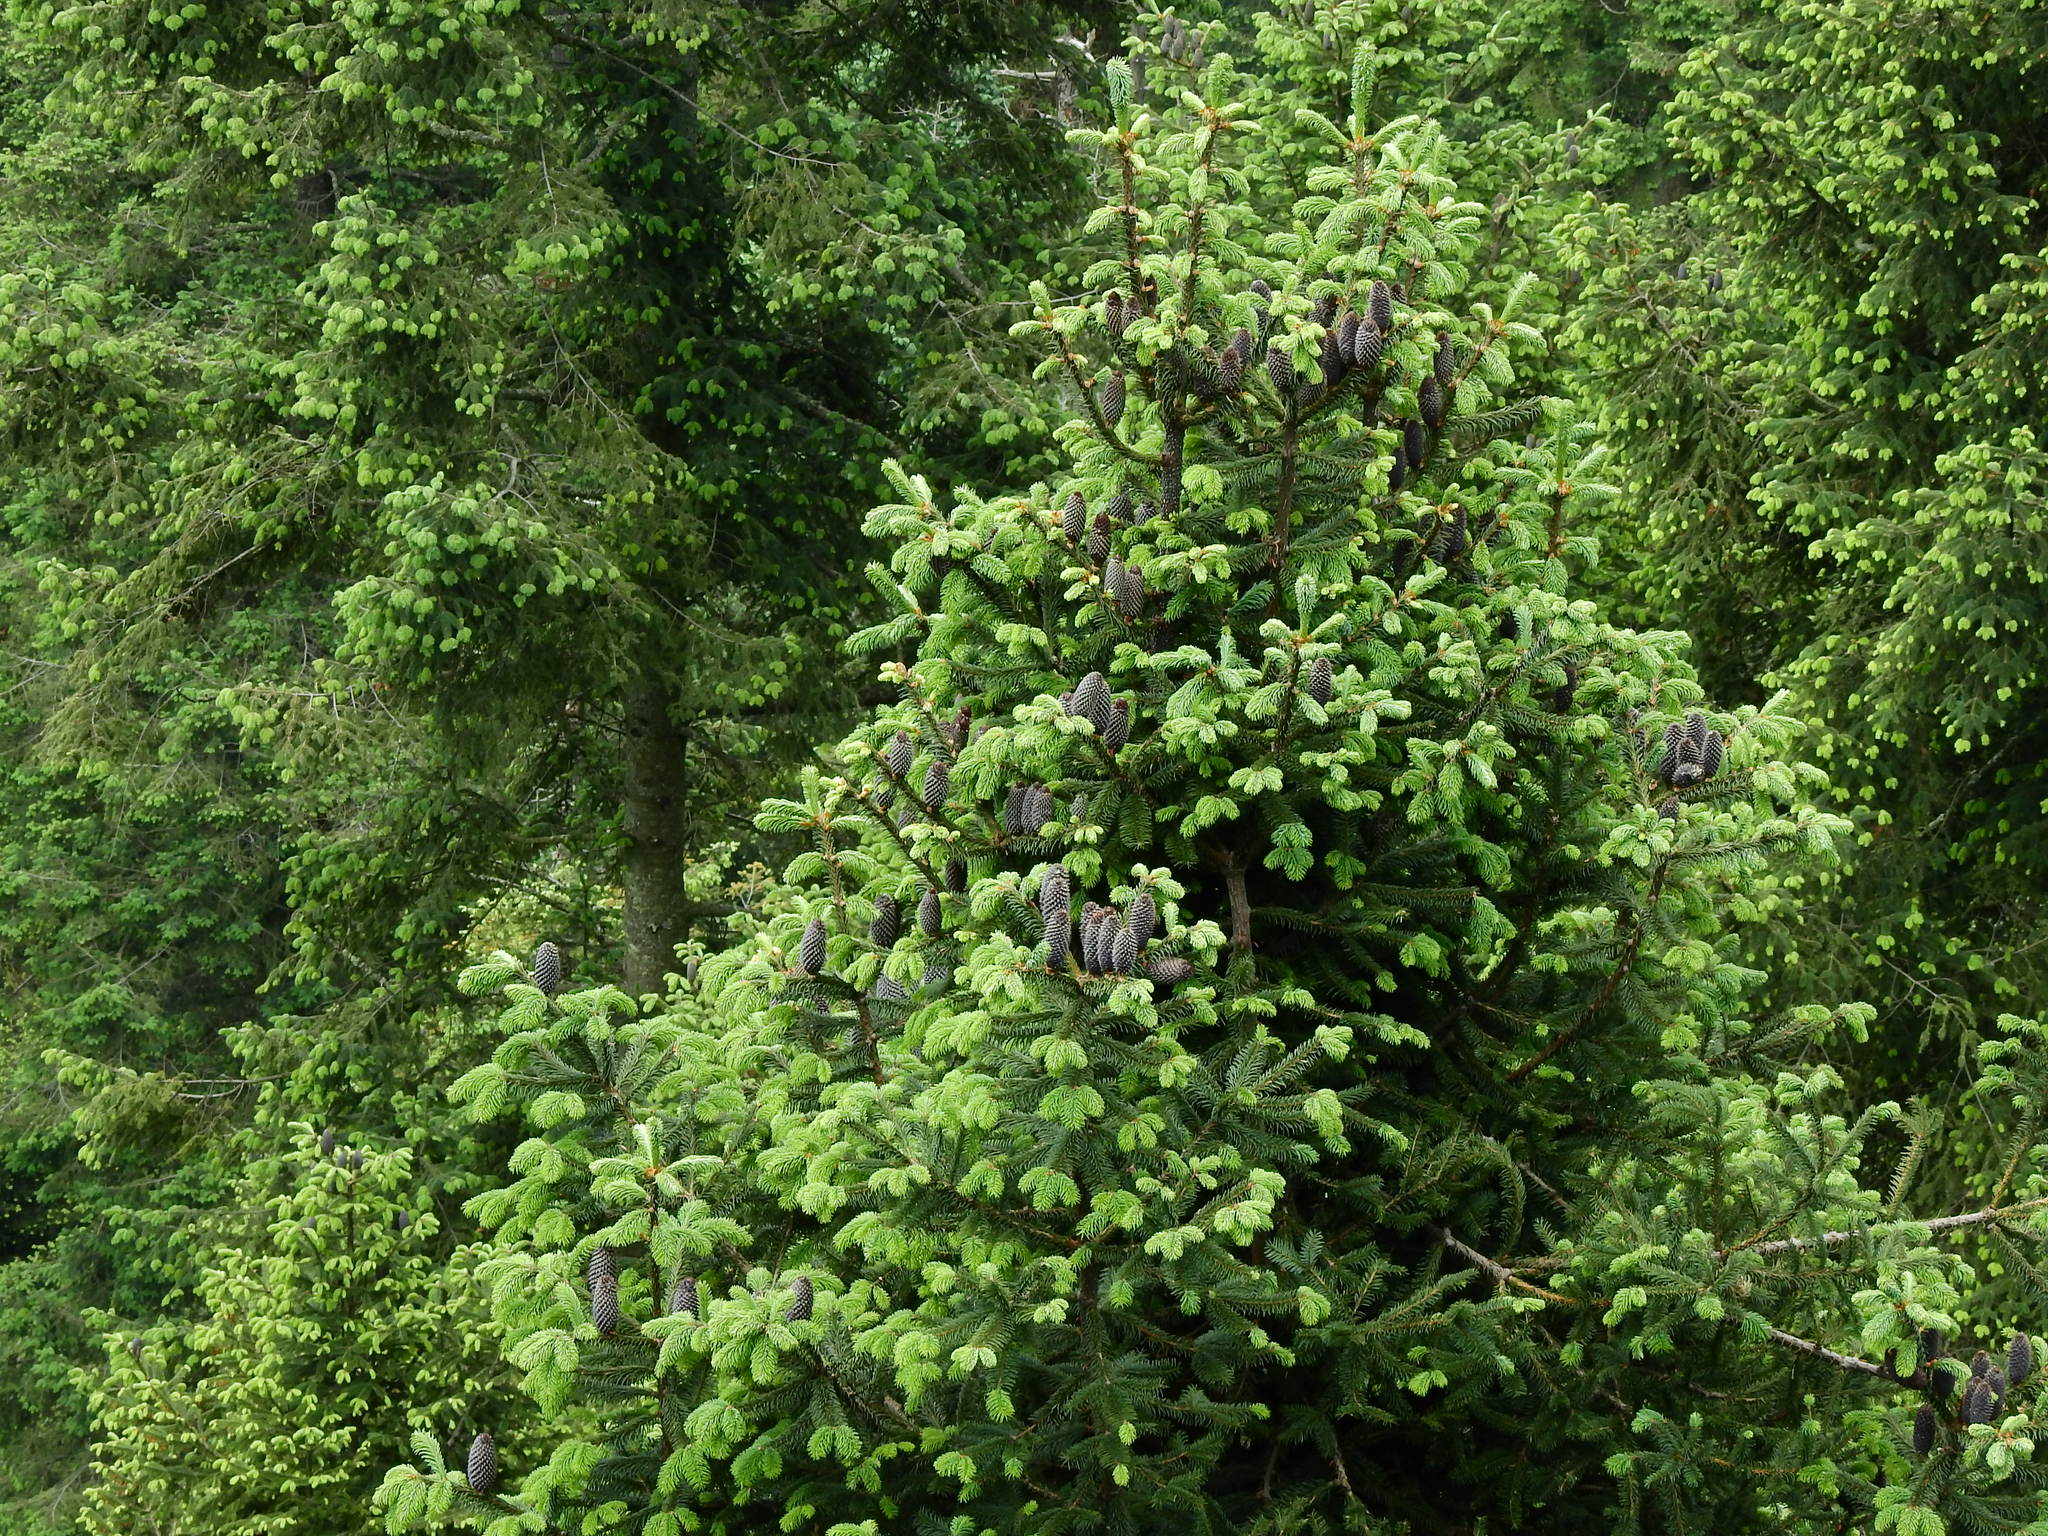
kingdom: Plantae
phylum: Tracheophyta
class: Pinopsida
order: Pinales
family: Pinaceae
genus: Abies
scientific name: Abies religiosa
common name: Sacred fir
